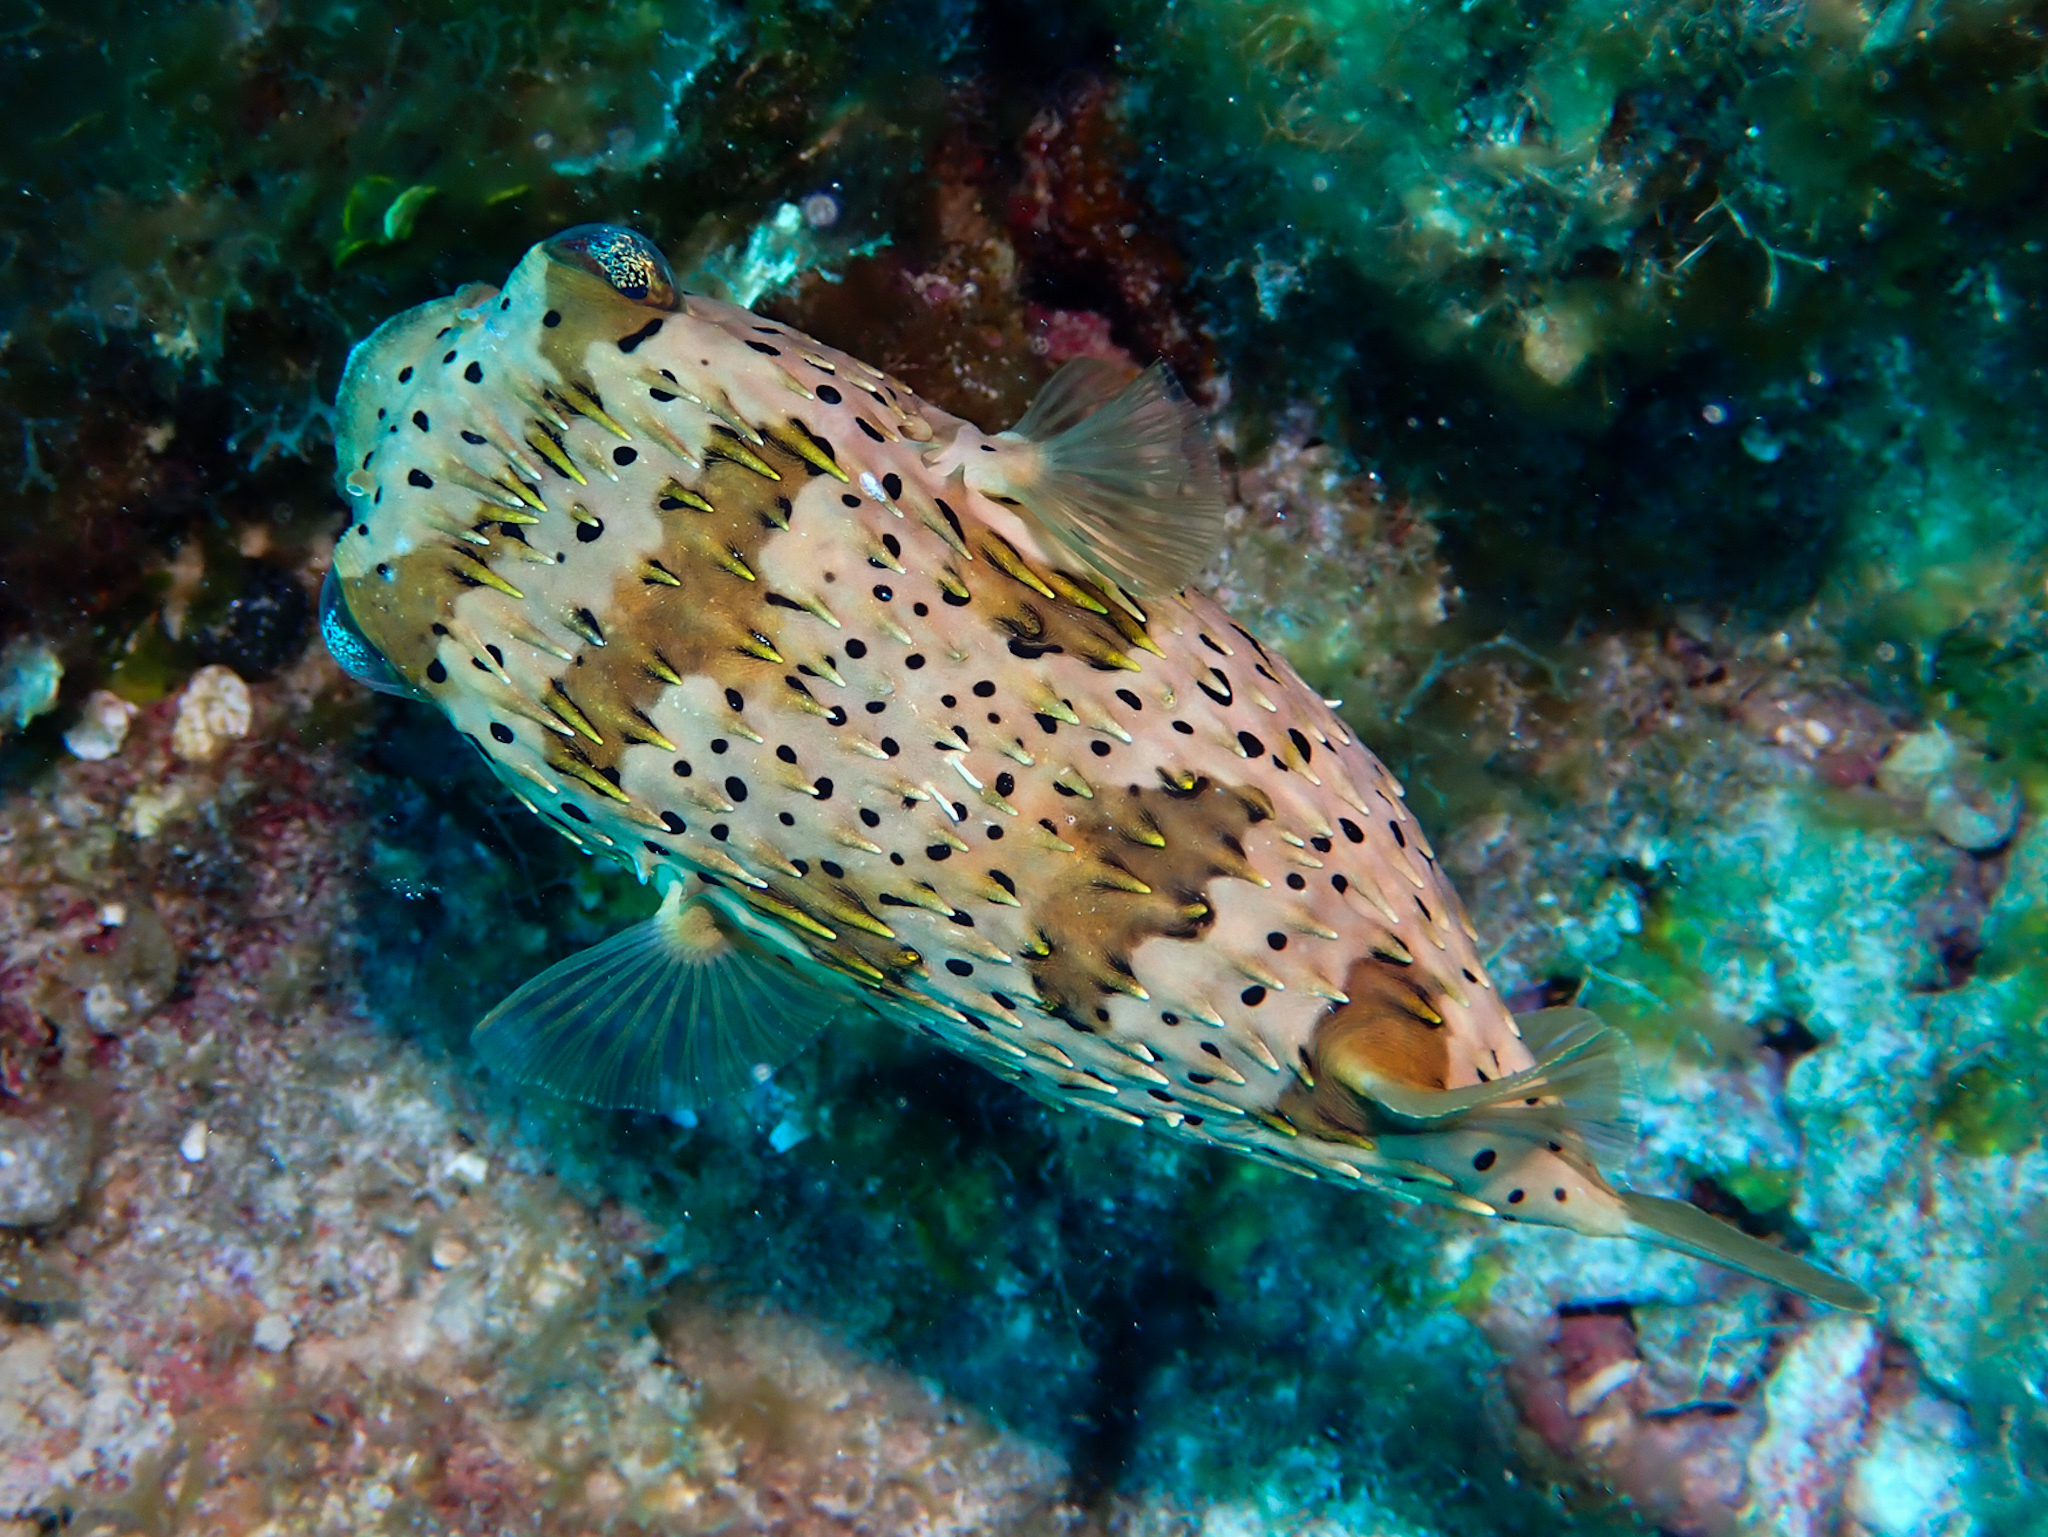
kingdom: Animalia
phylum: Chordata
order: Tetraodontiformes
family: Diodontidae
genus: Diodon
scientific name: Diodon holocanthus
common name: Balloonfish
